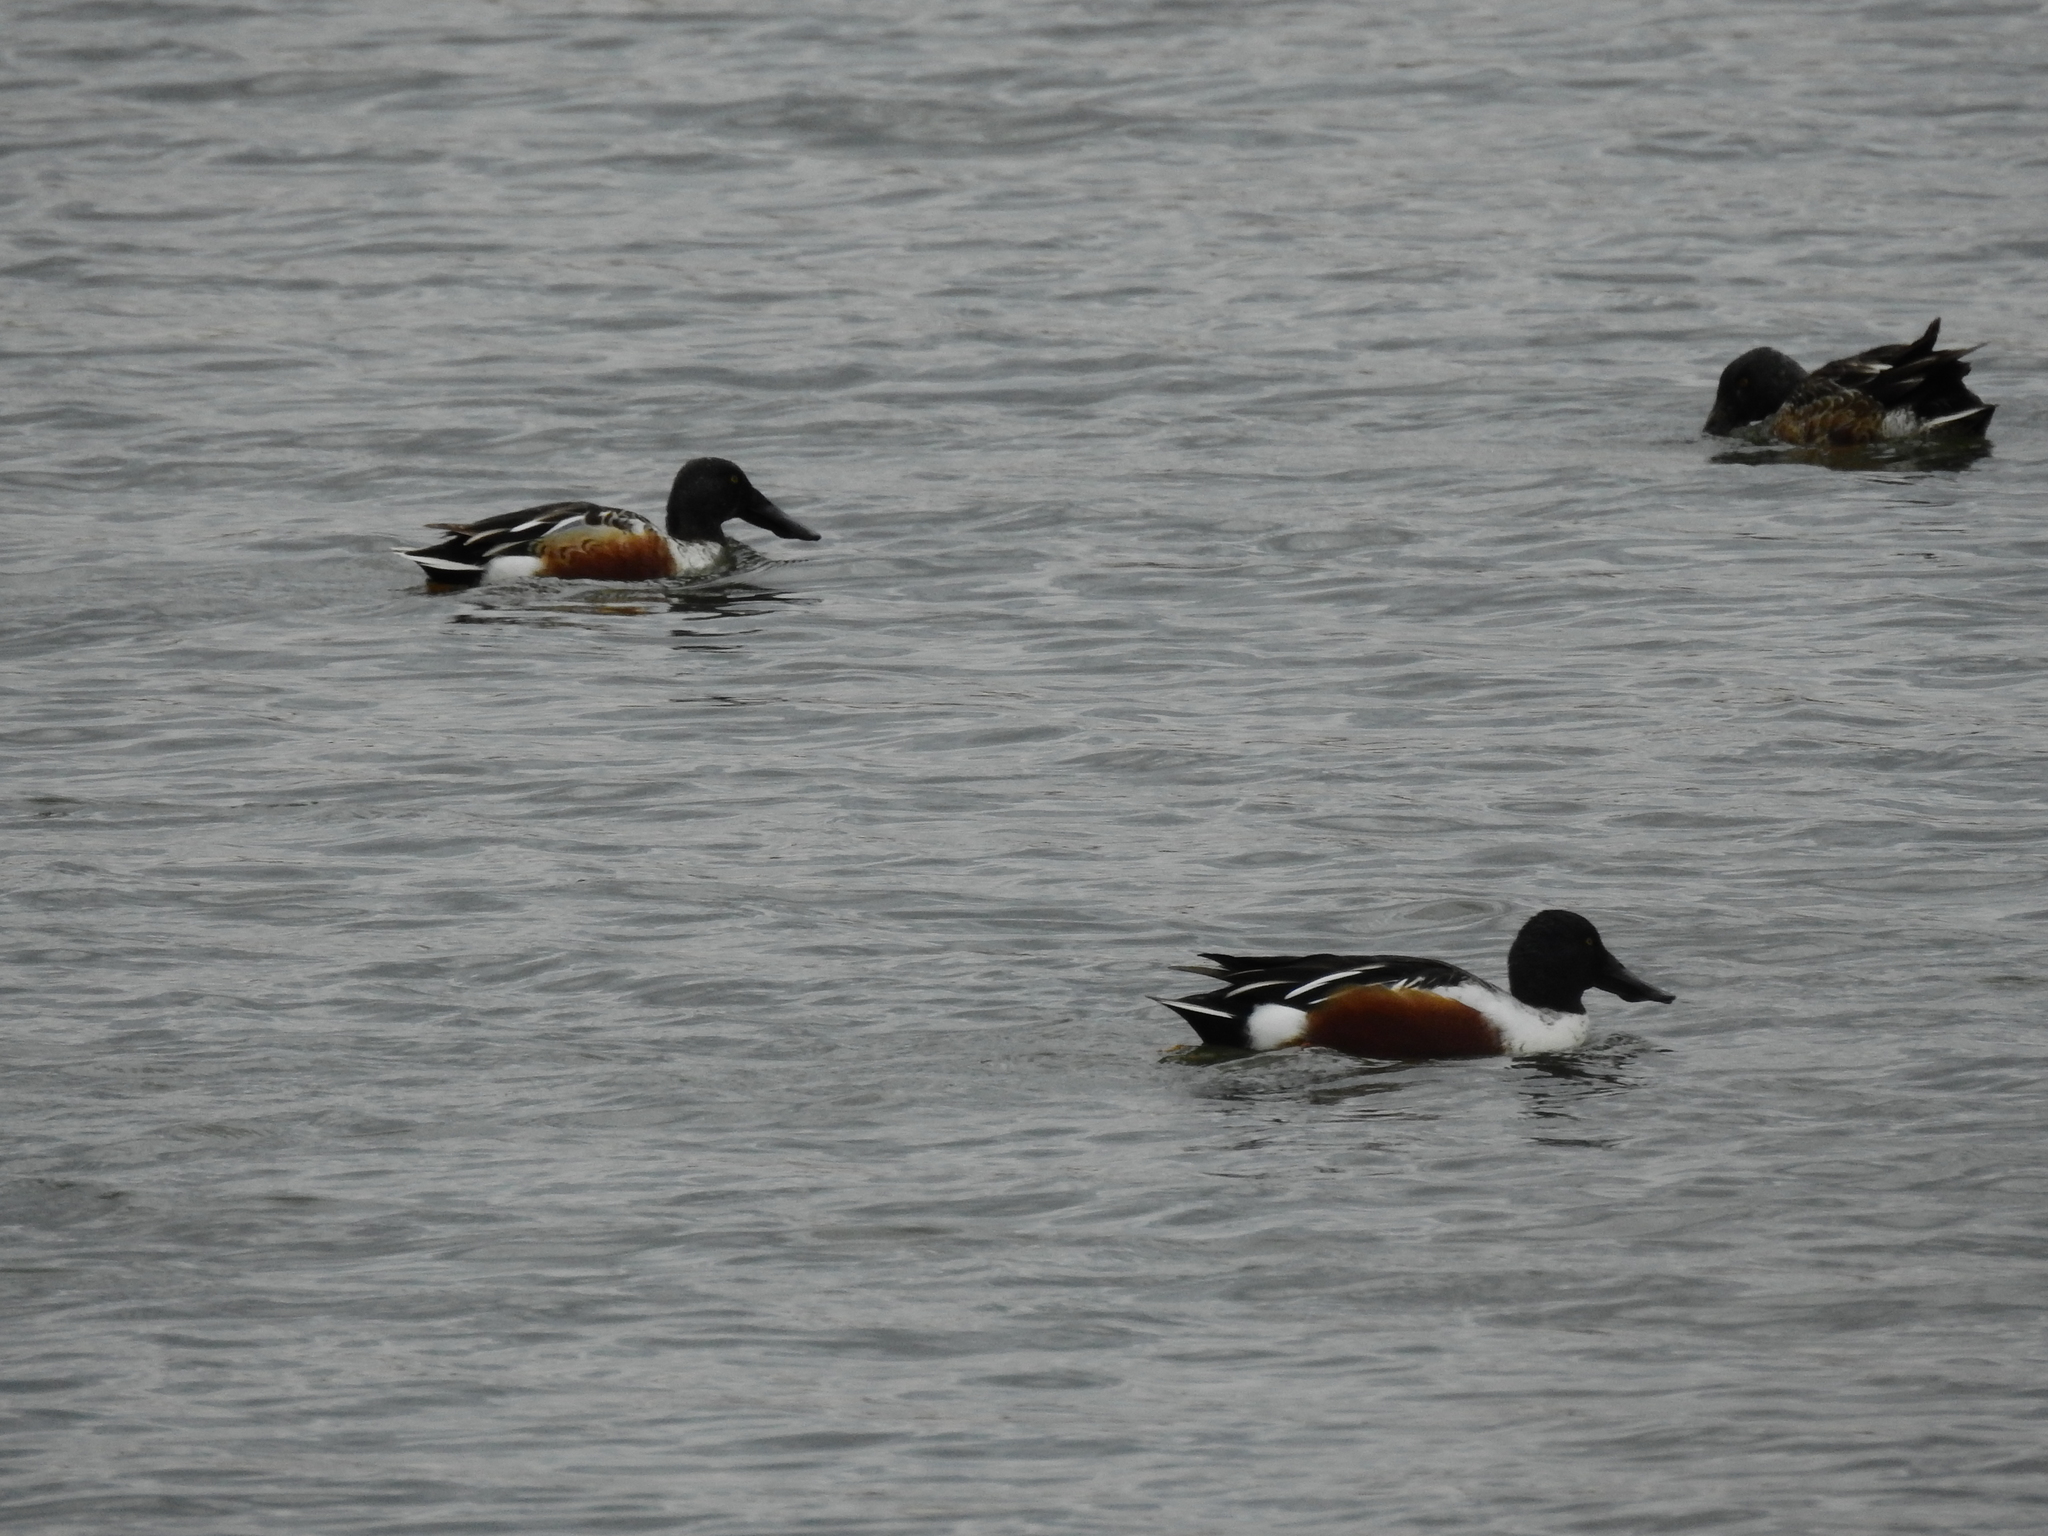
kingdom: Animalia
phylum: Chordata
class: Aves
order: Anseriformes
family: Anatidae
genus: Spatula
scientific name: Spatula clypeata
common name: Northern shoveler
